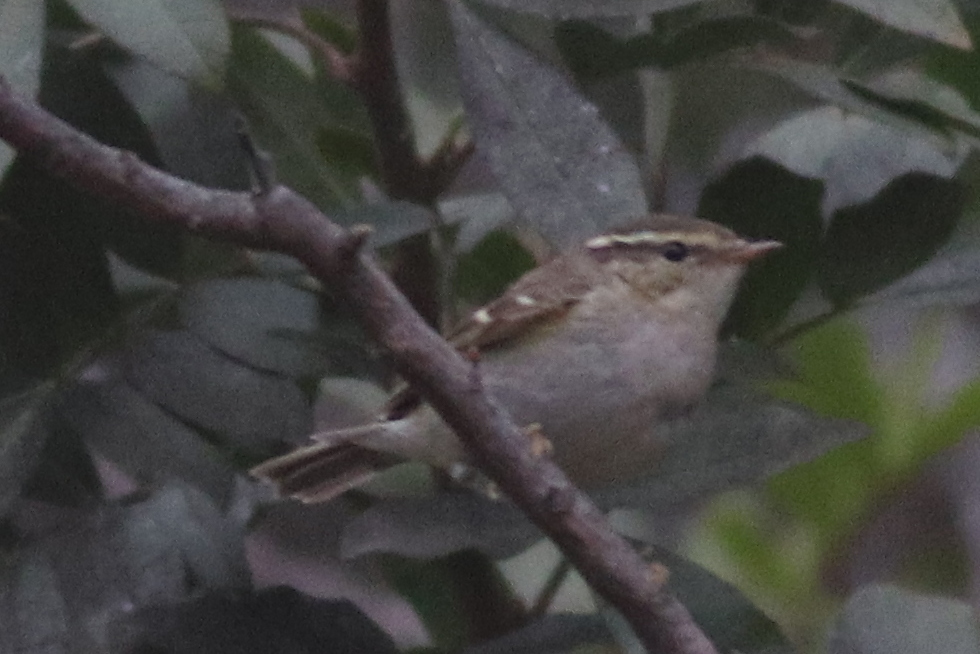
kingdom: Animalia
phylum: Chordata
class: Aves
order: Passeriformes
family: Phylloscopidae
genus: Phylloscopus
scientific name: Phylloscopus inornatus
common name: Yellow-browed warbler
